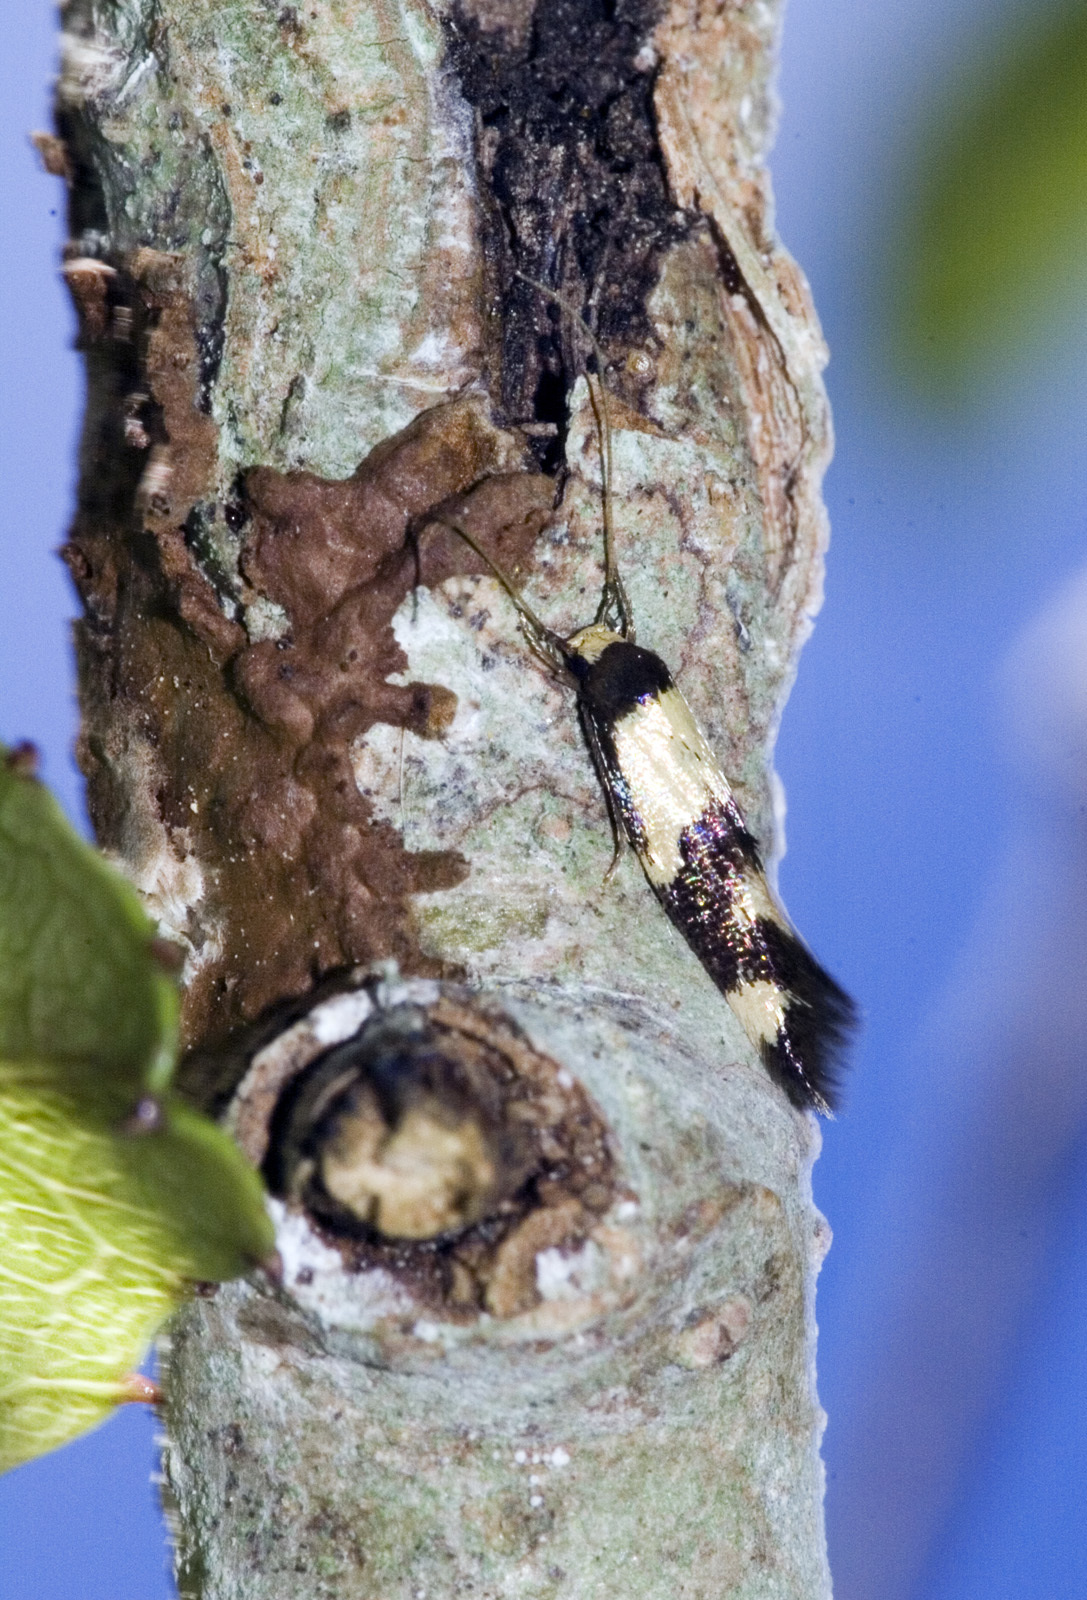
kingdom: Animalia
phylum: Arthropoda
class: Insecta
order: Lepidoptera
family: Tineidae
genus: Opogona
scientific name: Opogona comptella
